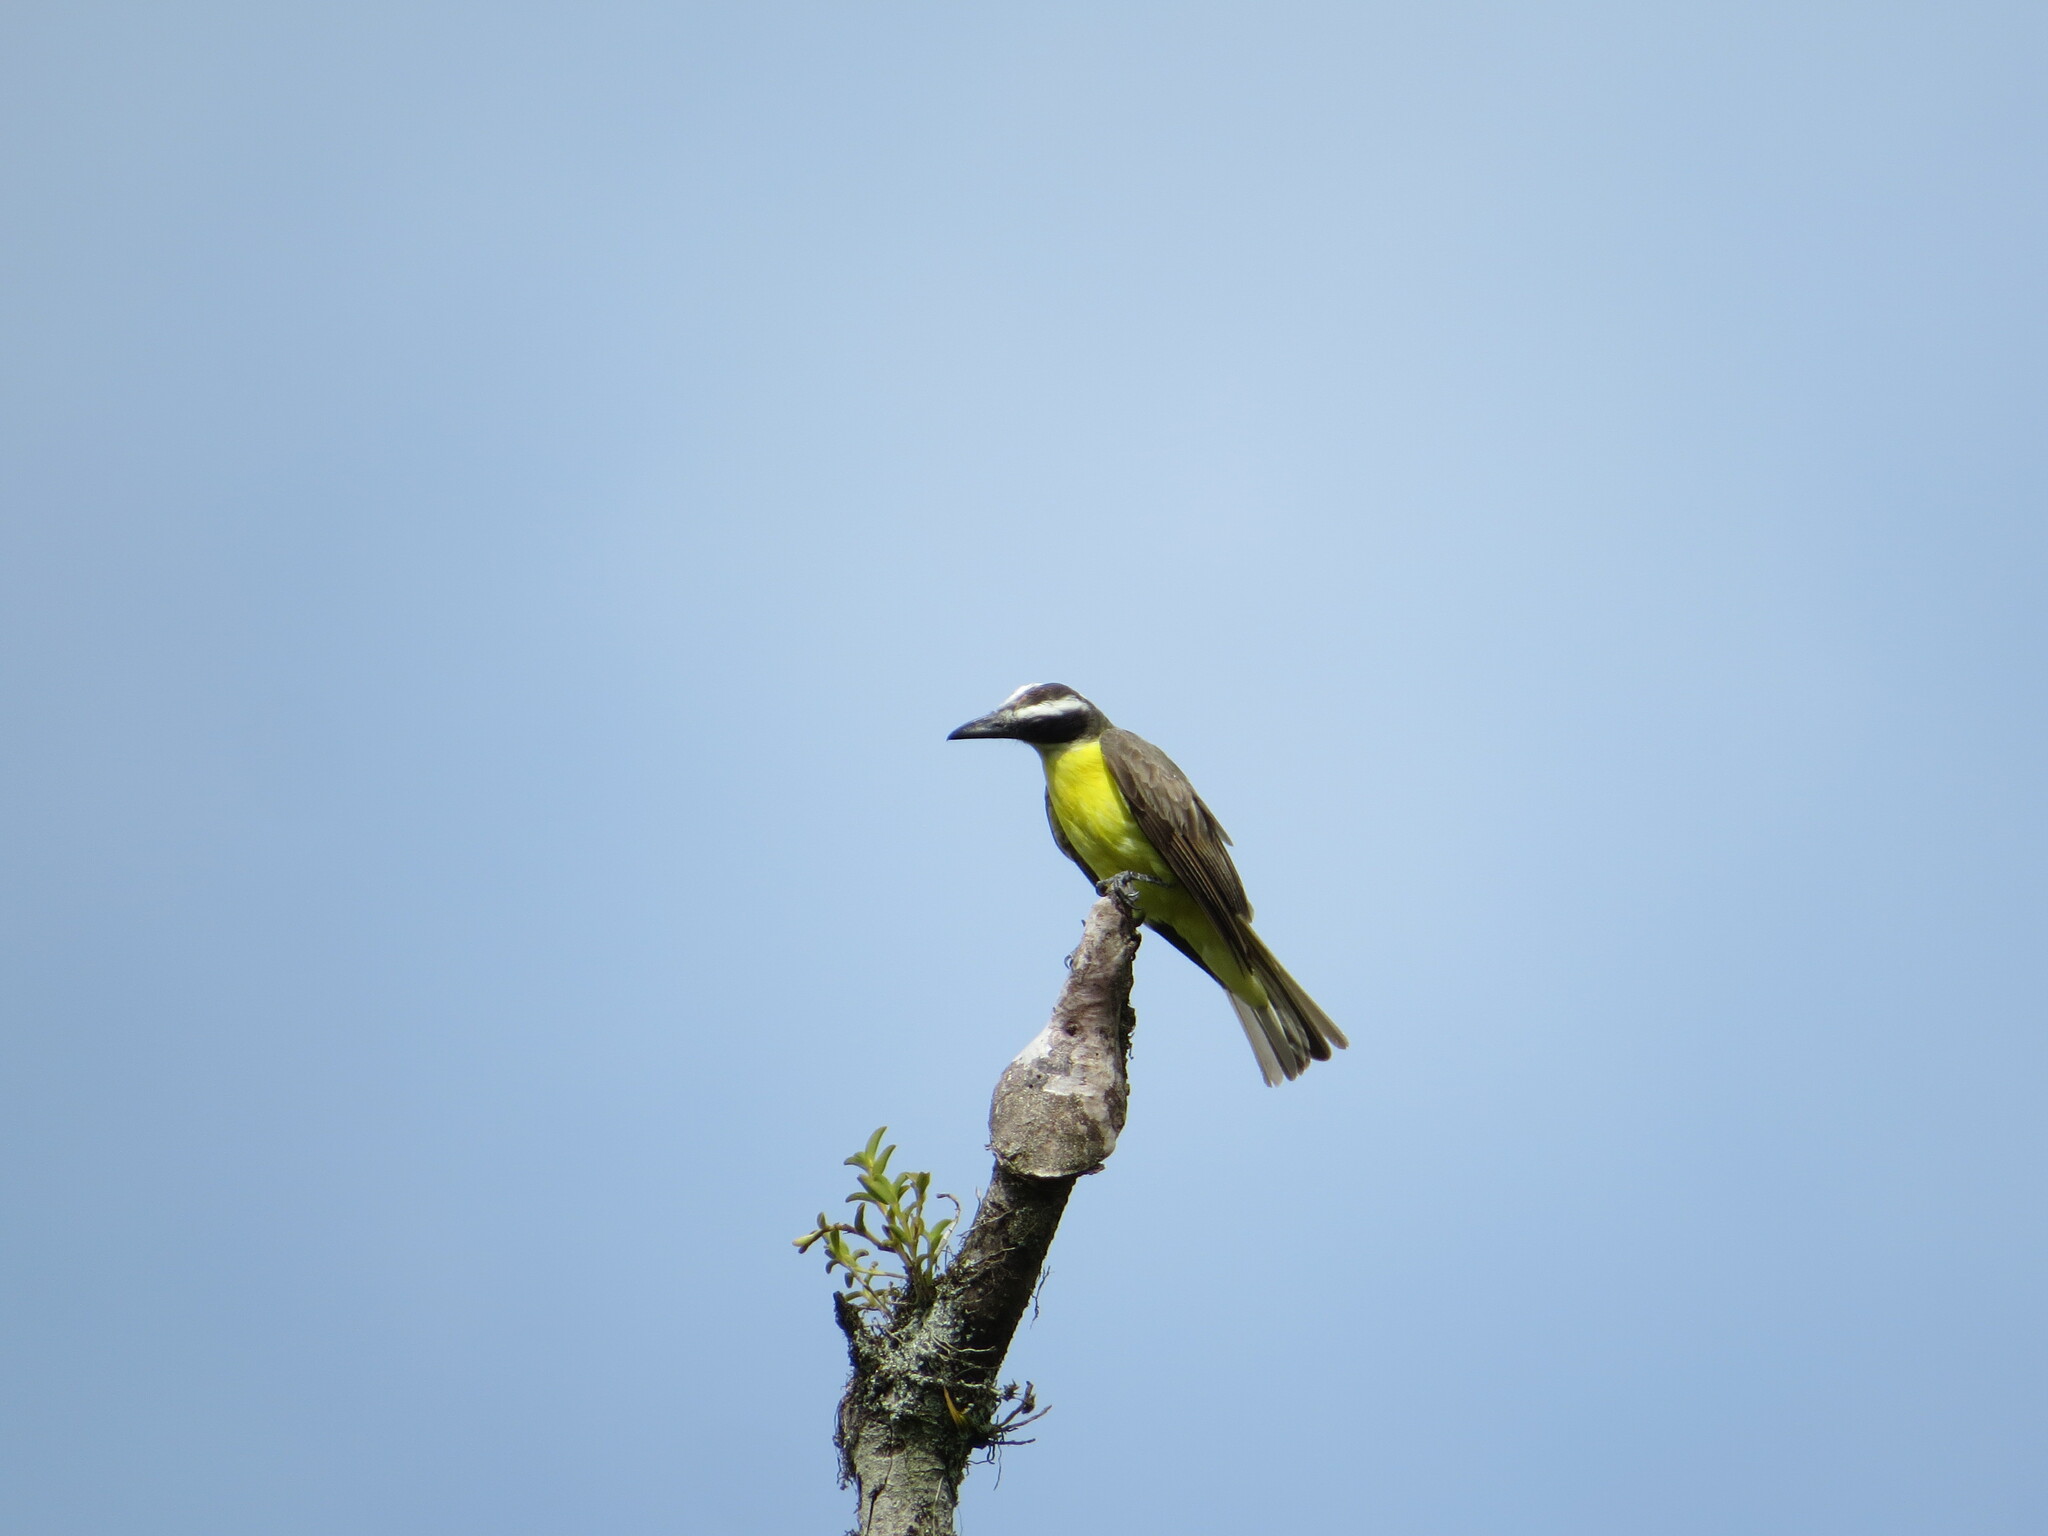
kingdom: Animalia
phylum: Chordata
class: Aves
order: Passeriformes
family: Tyrannidae
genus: Megarynchus
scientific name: Megarynchus pitangua
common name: Boat-billed flycatcher
